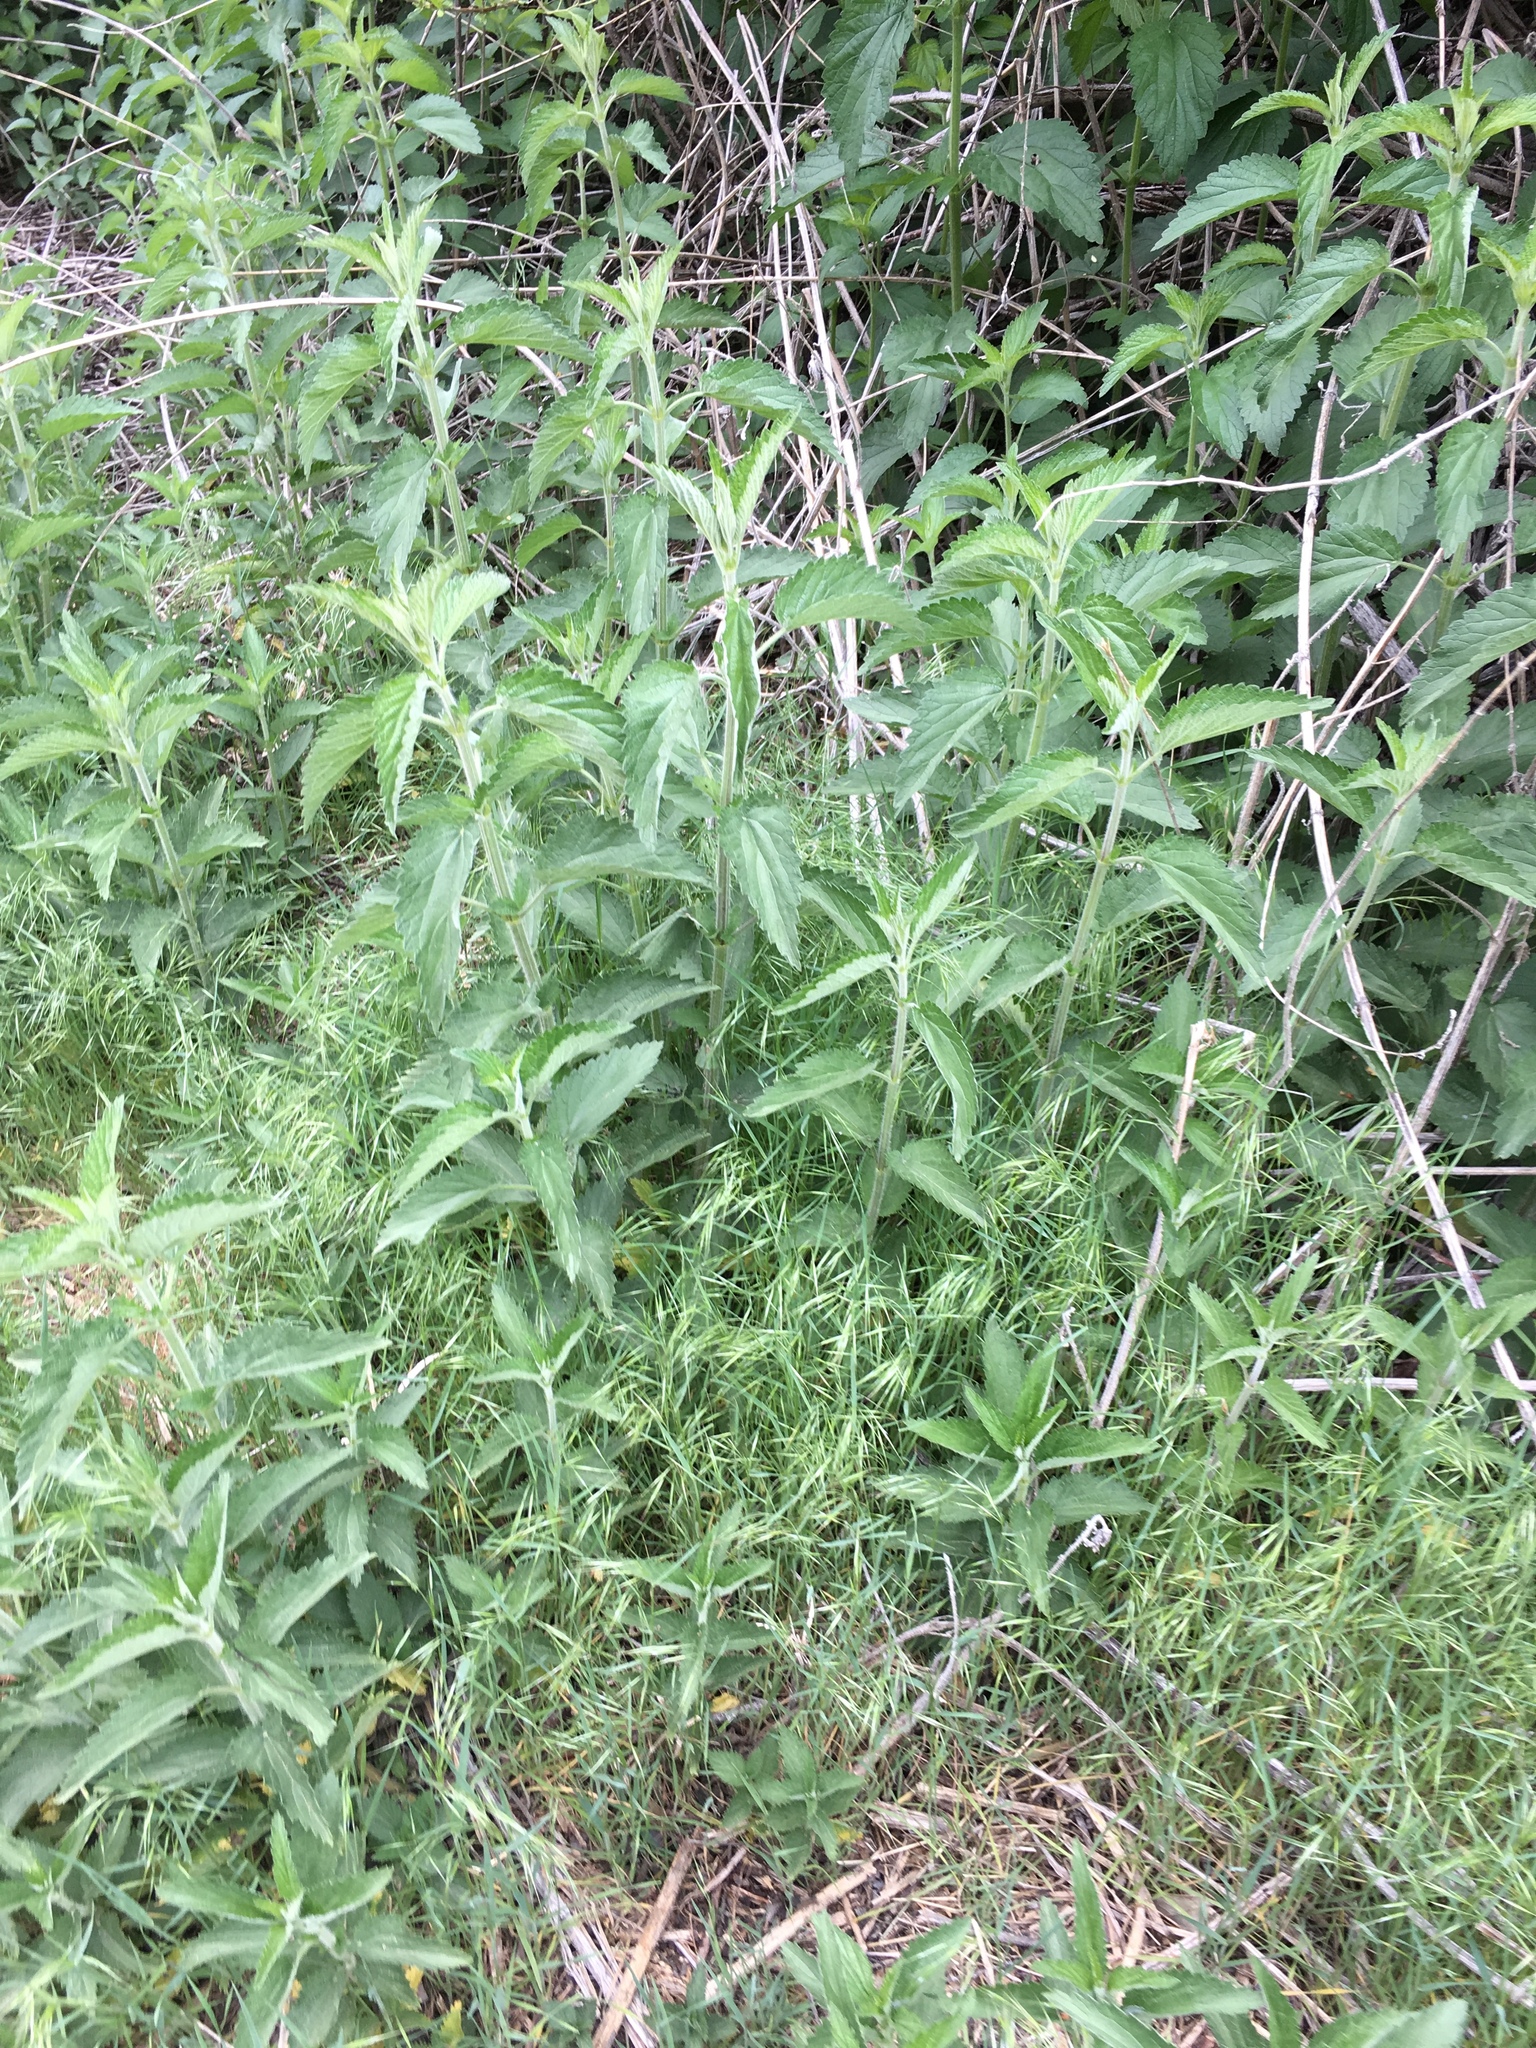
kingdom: Plantae
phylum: Tracheophyta
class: Magnoliopsida
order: Rosales
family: Urticaceae
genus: Urtica
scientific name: Urtica dioica
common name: Common nettle
